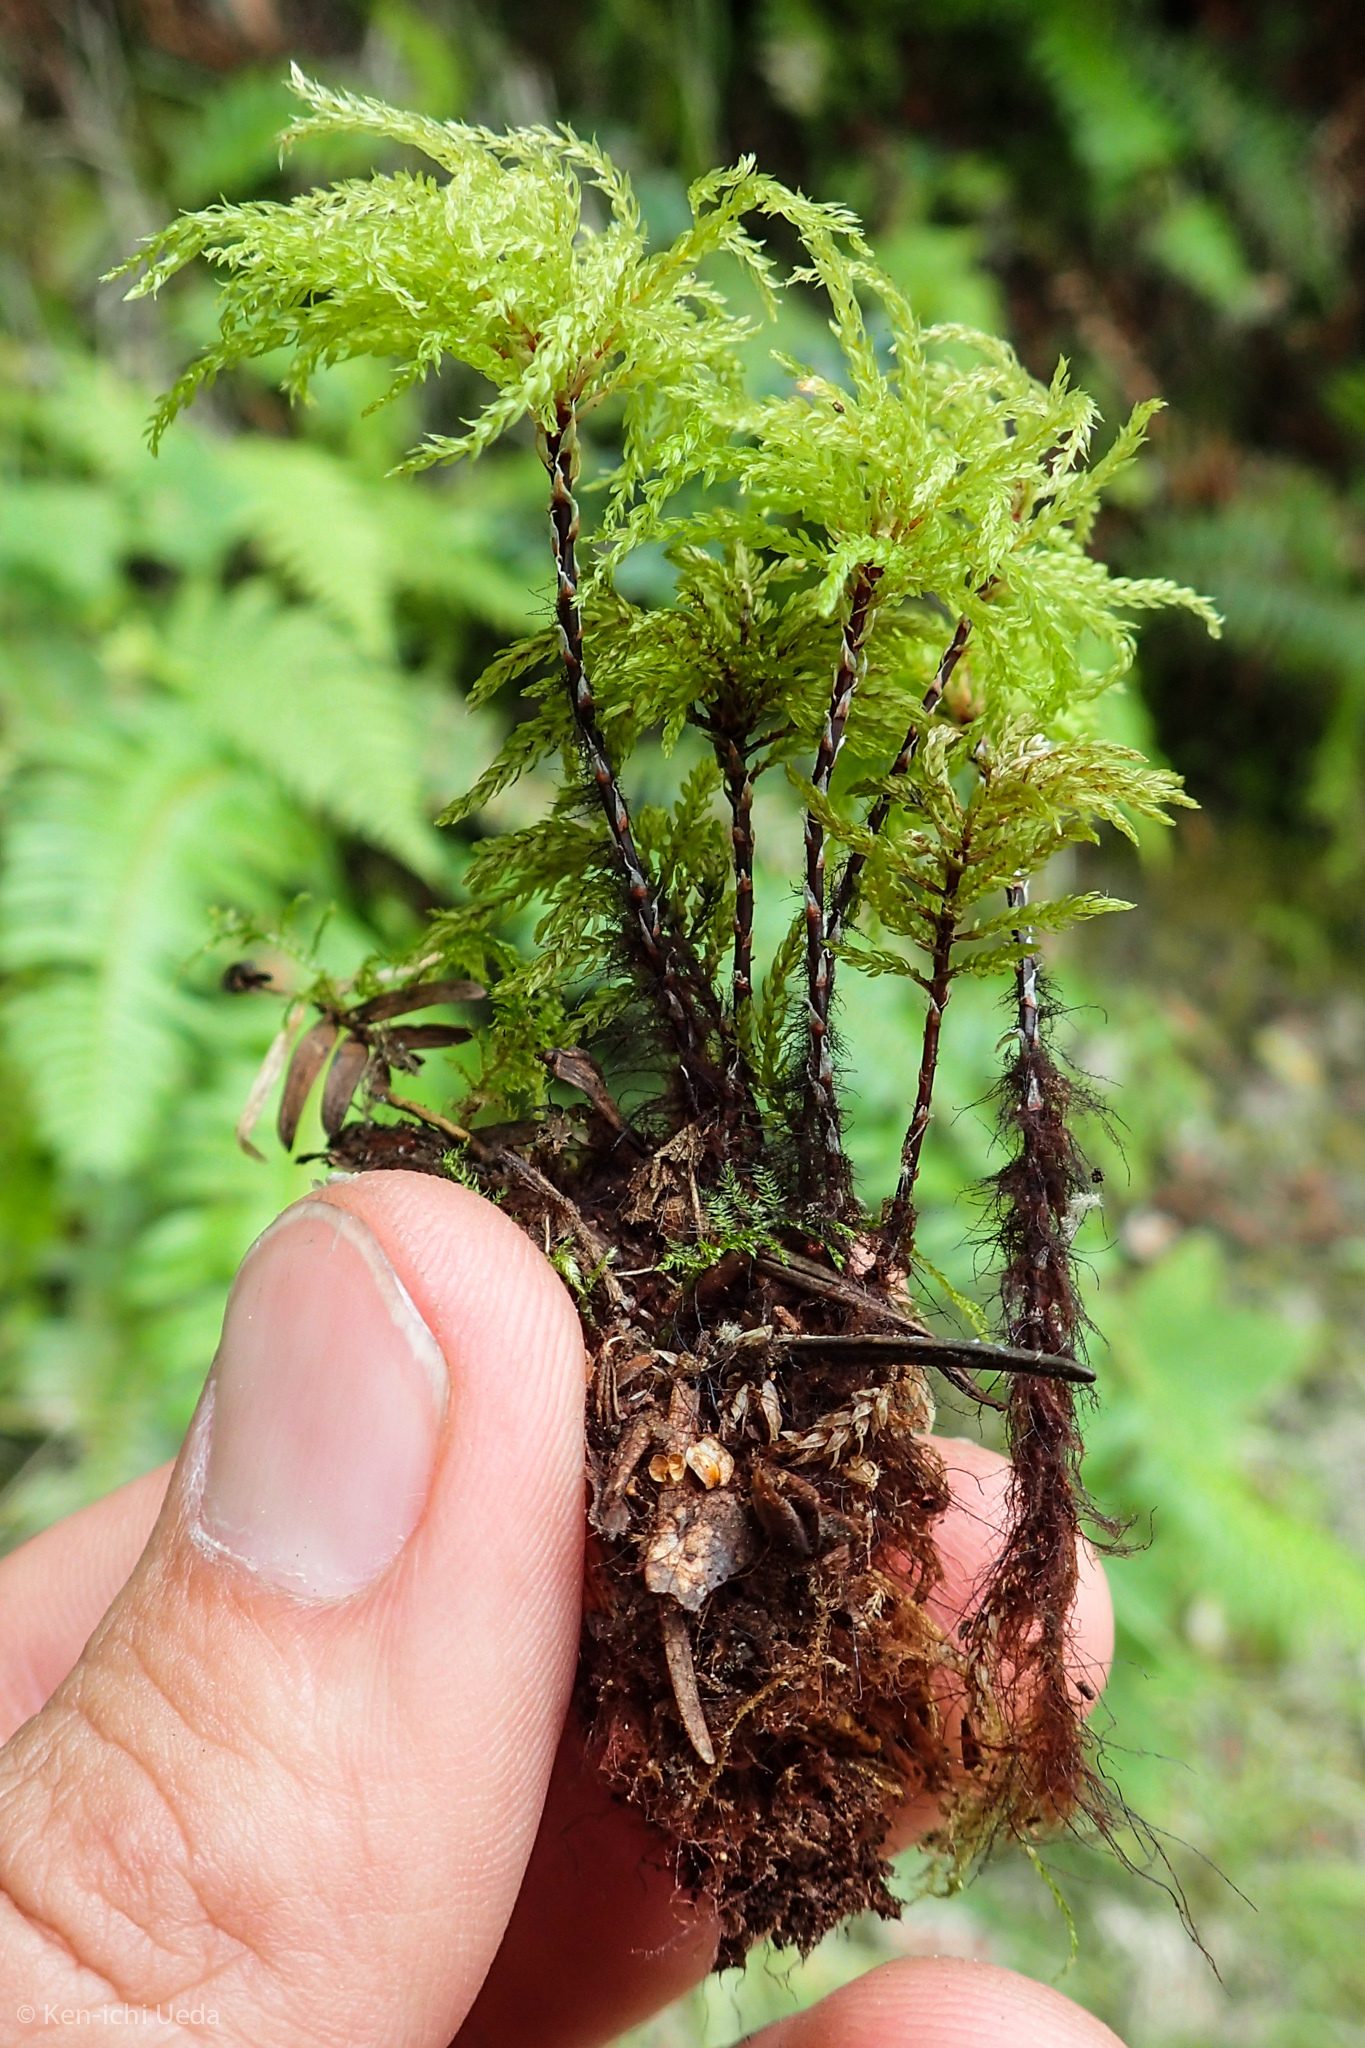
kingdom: Plantae
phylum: Bryophyta
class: Bryopsida
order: Bryales
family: Mniaceae
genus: Leucolepis
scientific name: Leucolepis acanthoneura
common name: Leucolepis umbrella moss
